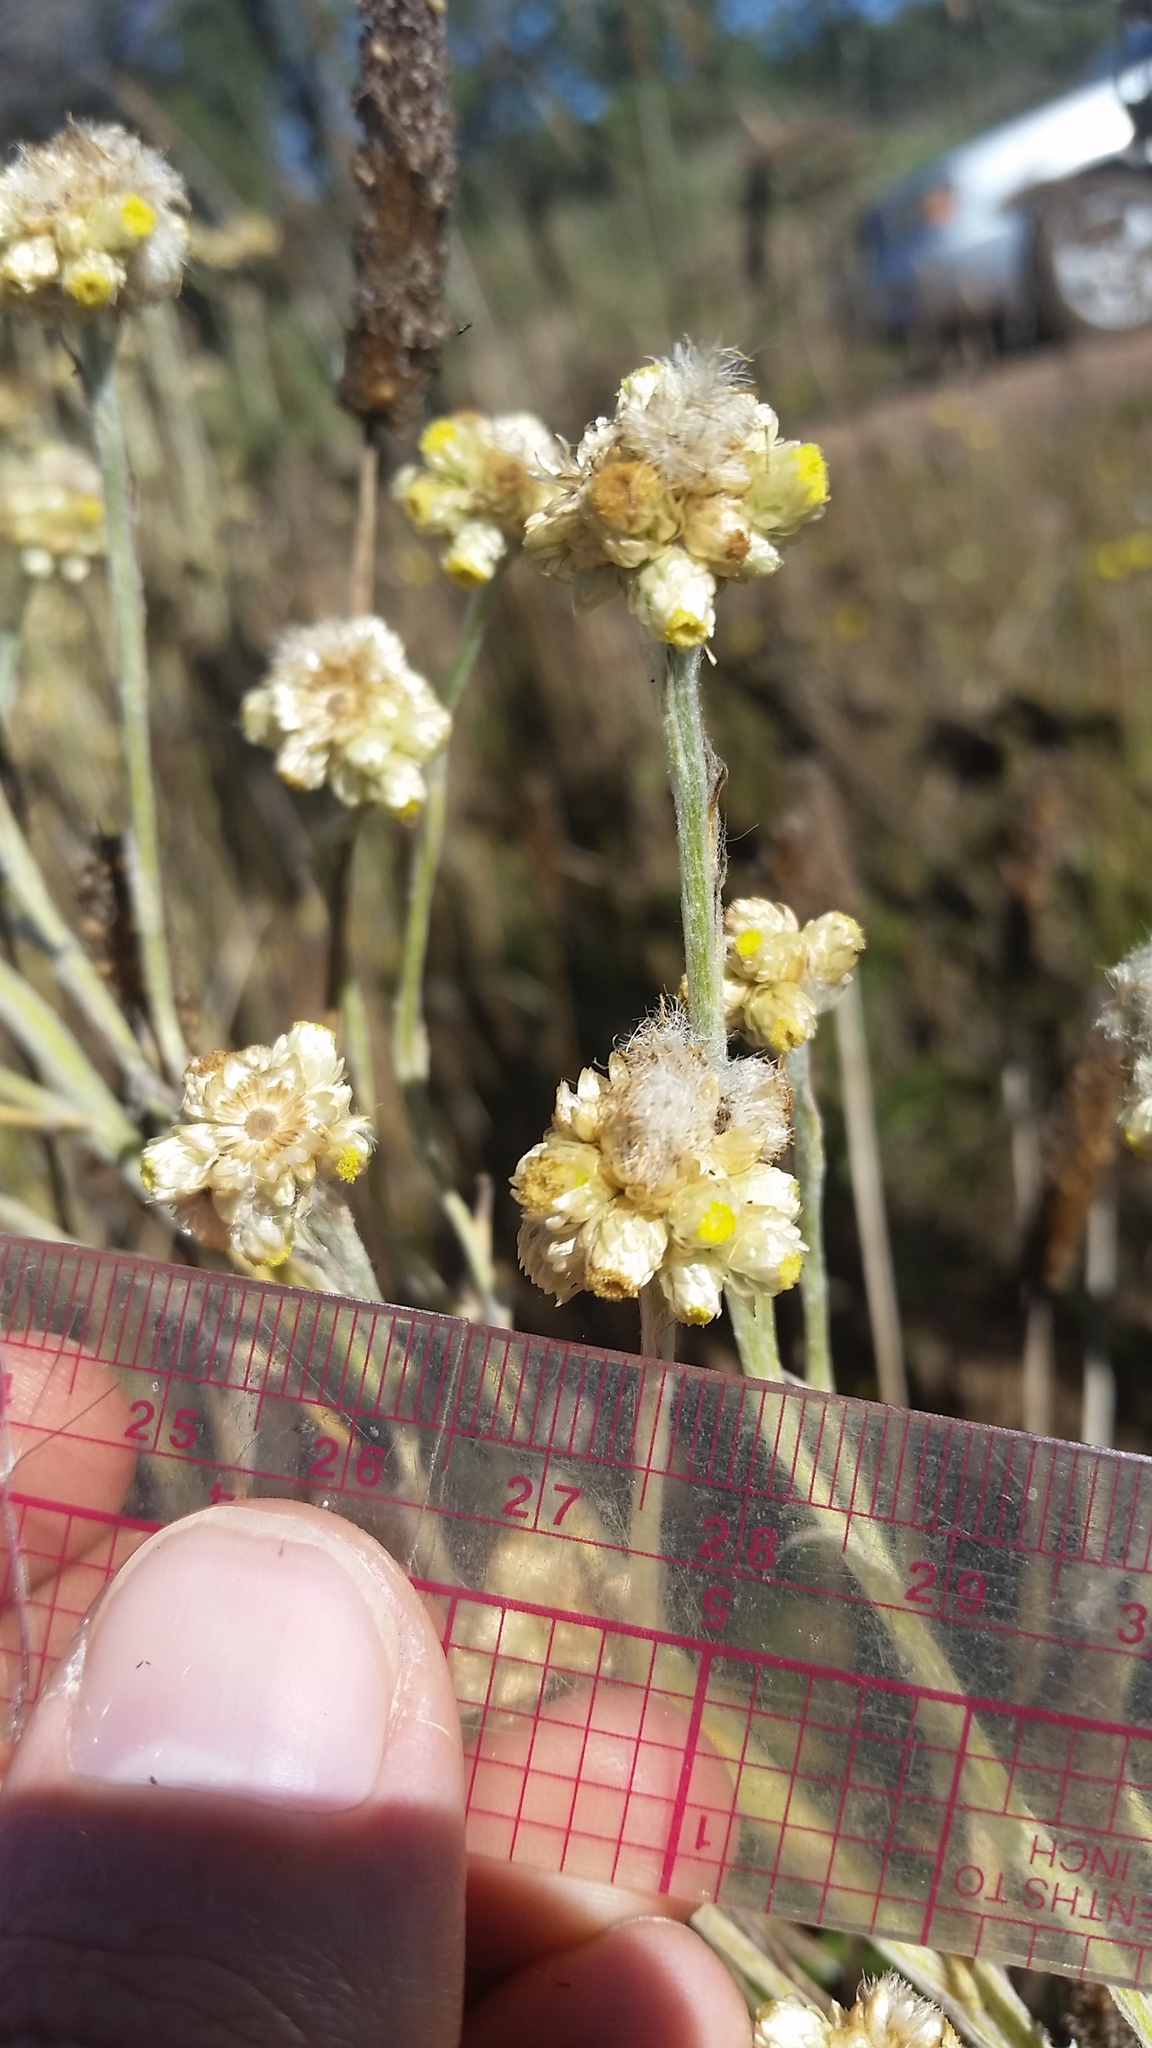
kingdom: Plantae
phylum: Tracheophyta
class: Magnoliopsida
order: Asterales
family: Asteraceae
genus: Pseudognaphalium
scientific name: Pseudognaphalium sandwicensium
